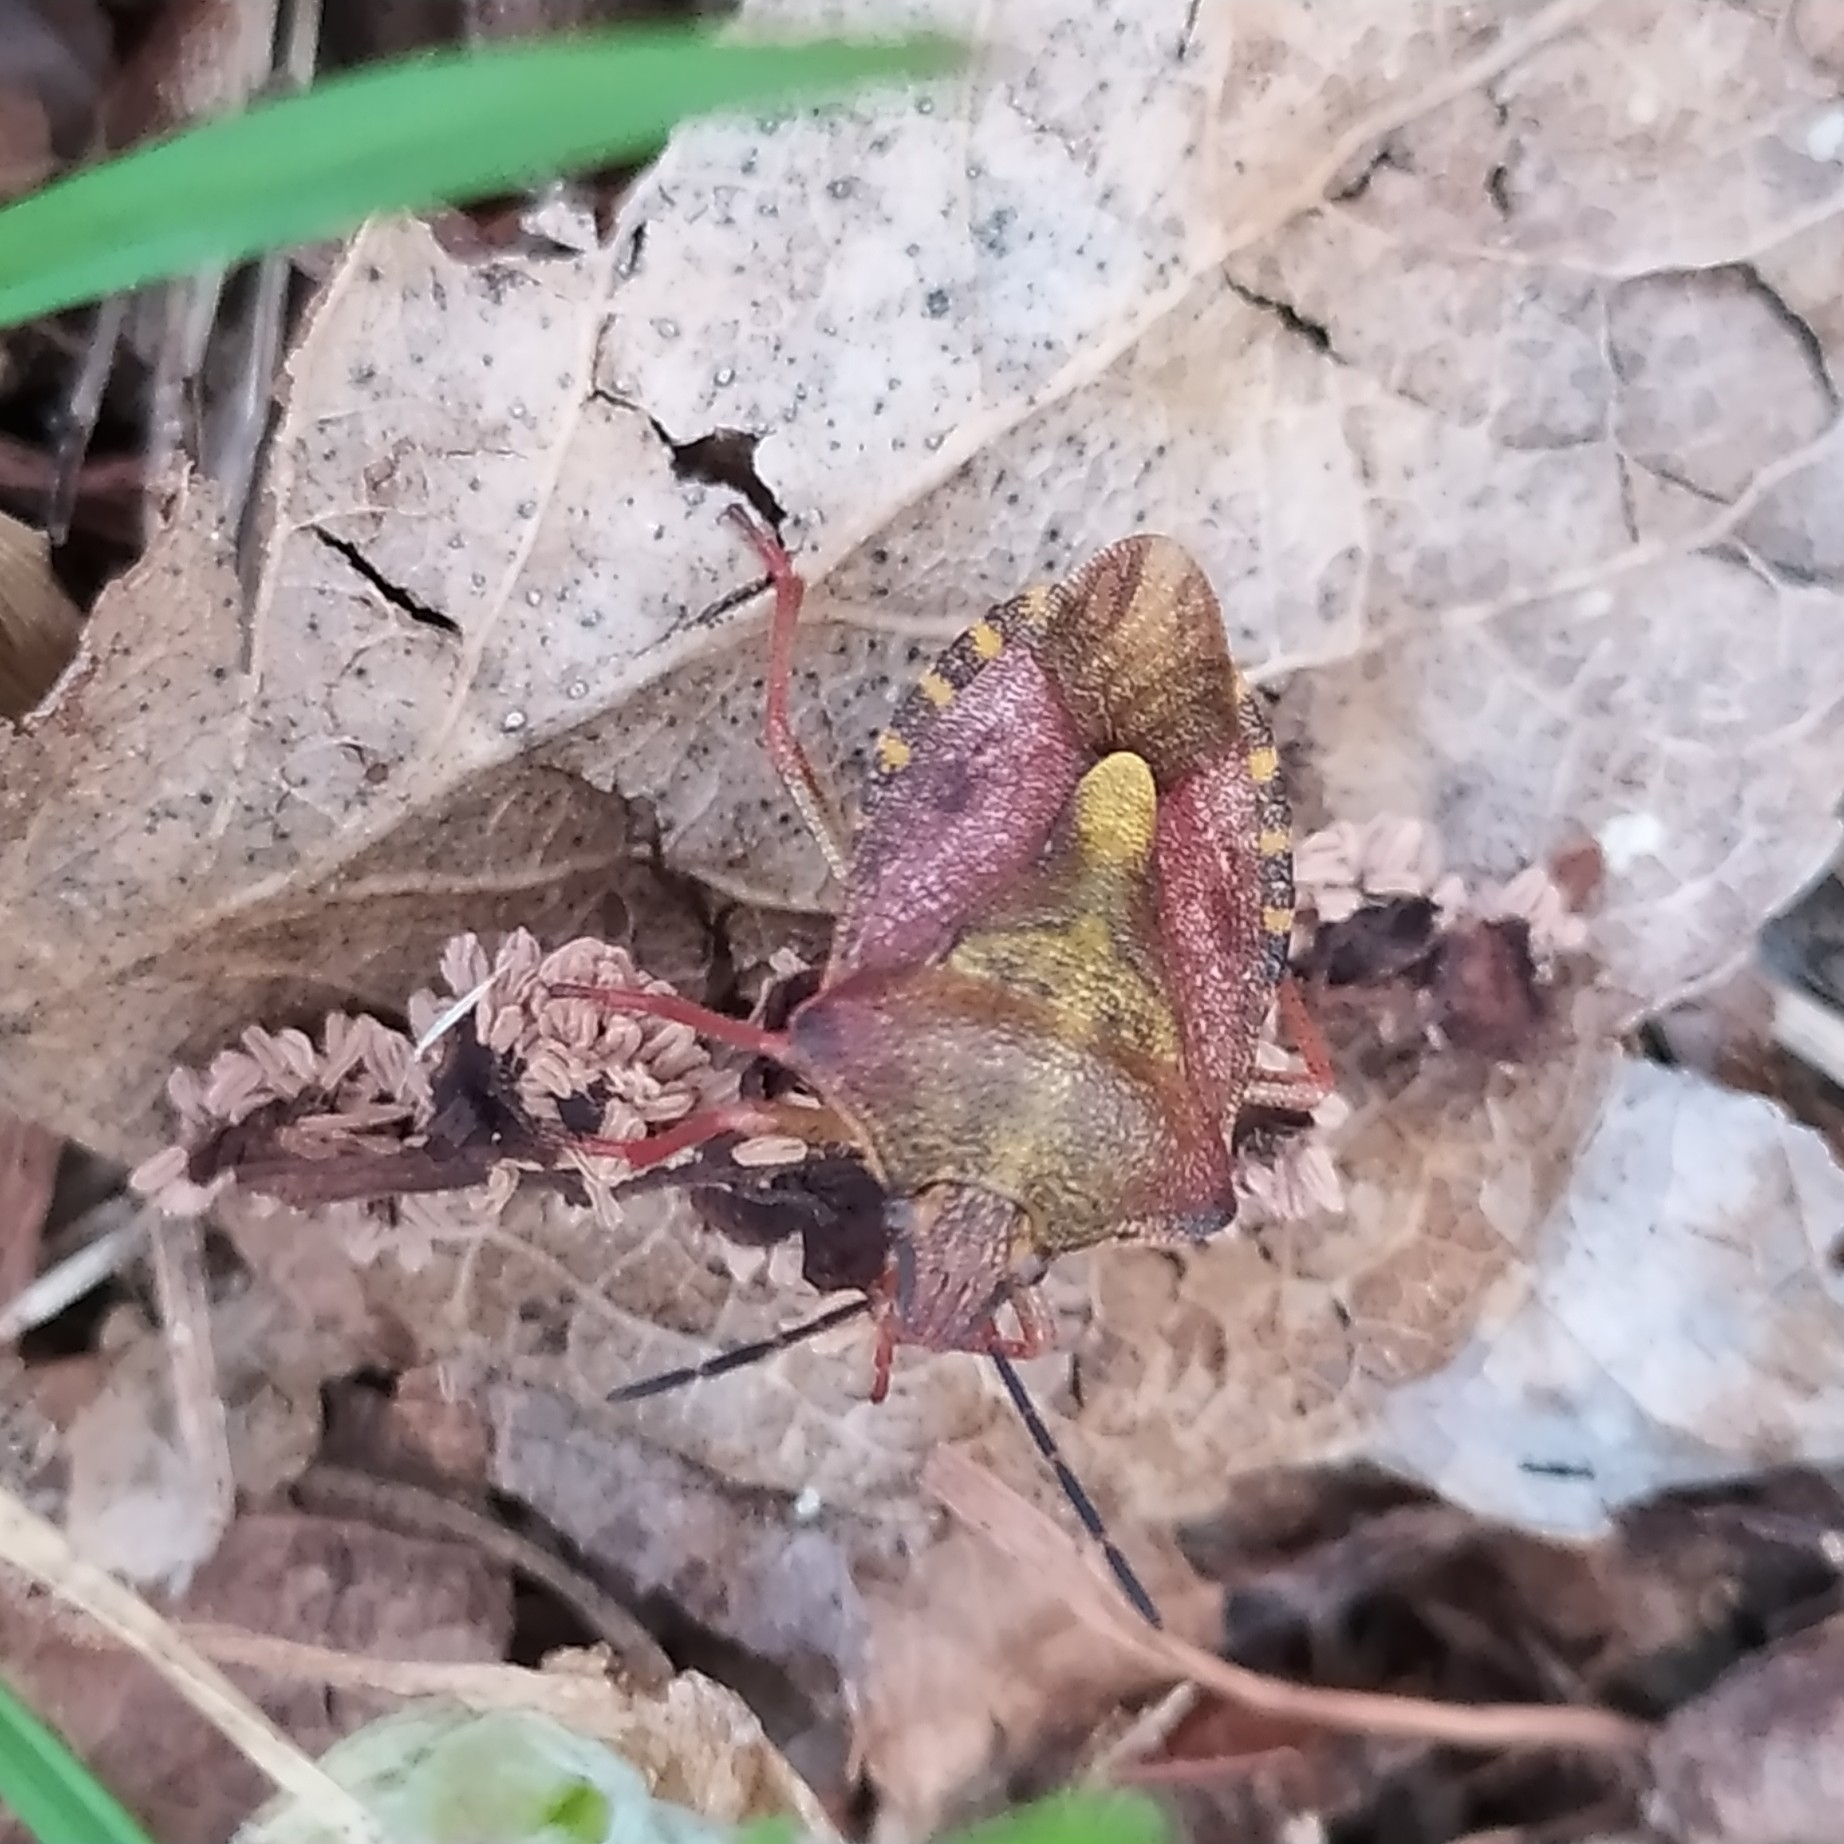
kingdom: Animalia
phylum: Arthropoda
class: Insecta
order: Hemiptera
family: Pentatomidae
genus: Carpocoris
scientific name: Carpocoris purpureipennis
